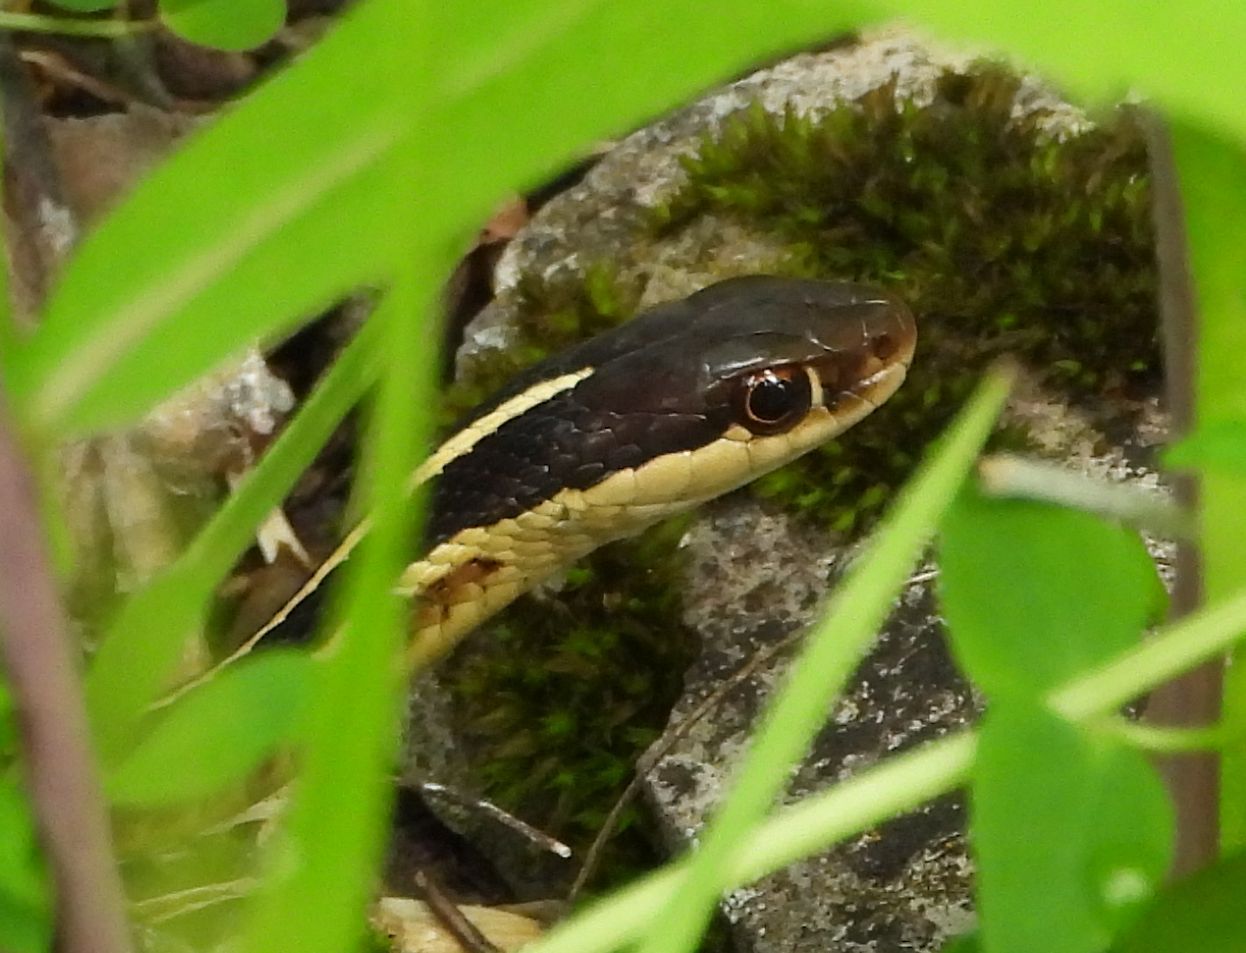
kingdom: Animalia
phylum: Chordata
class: Squamata
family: Colubridae
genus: Thamnophis
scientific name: Thamnophis saurita
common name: Eastern ribbonsnake
